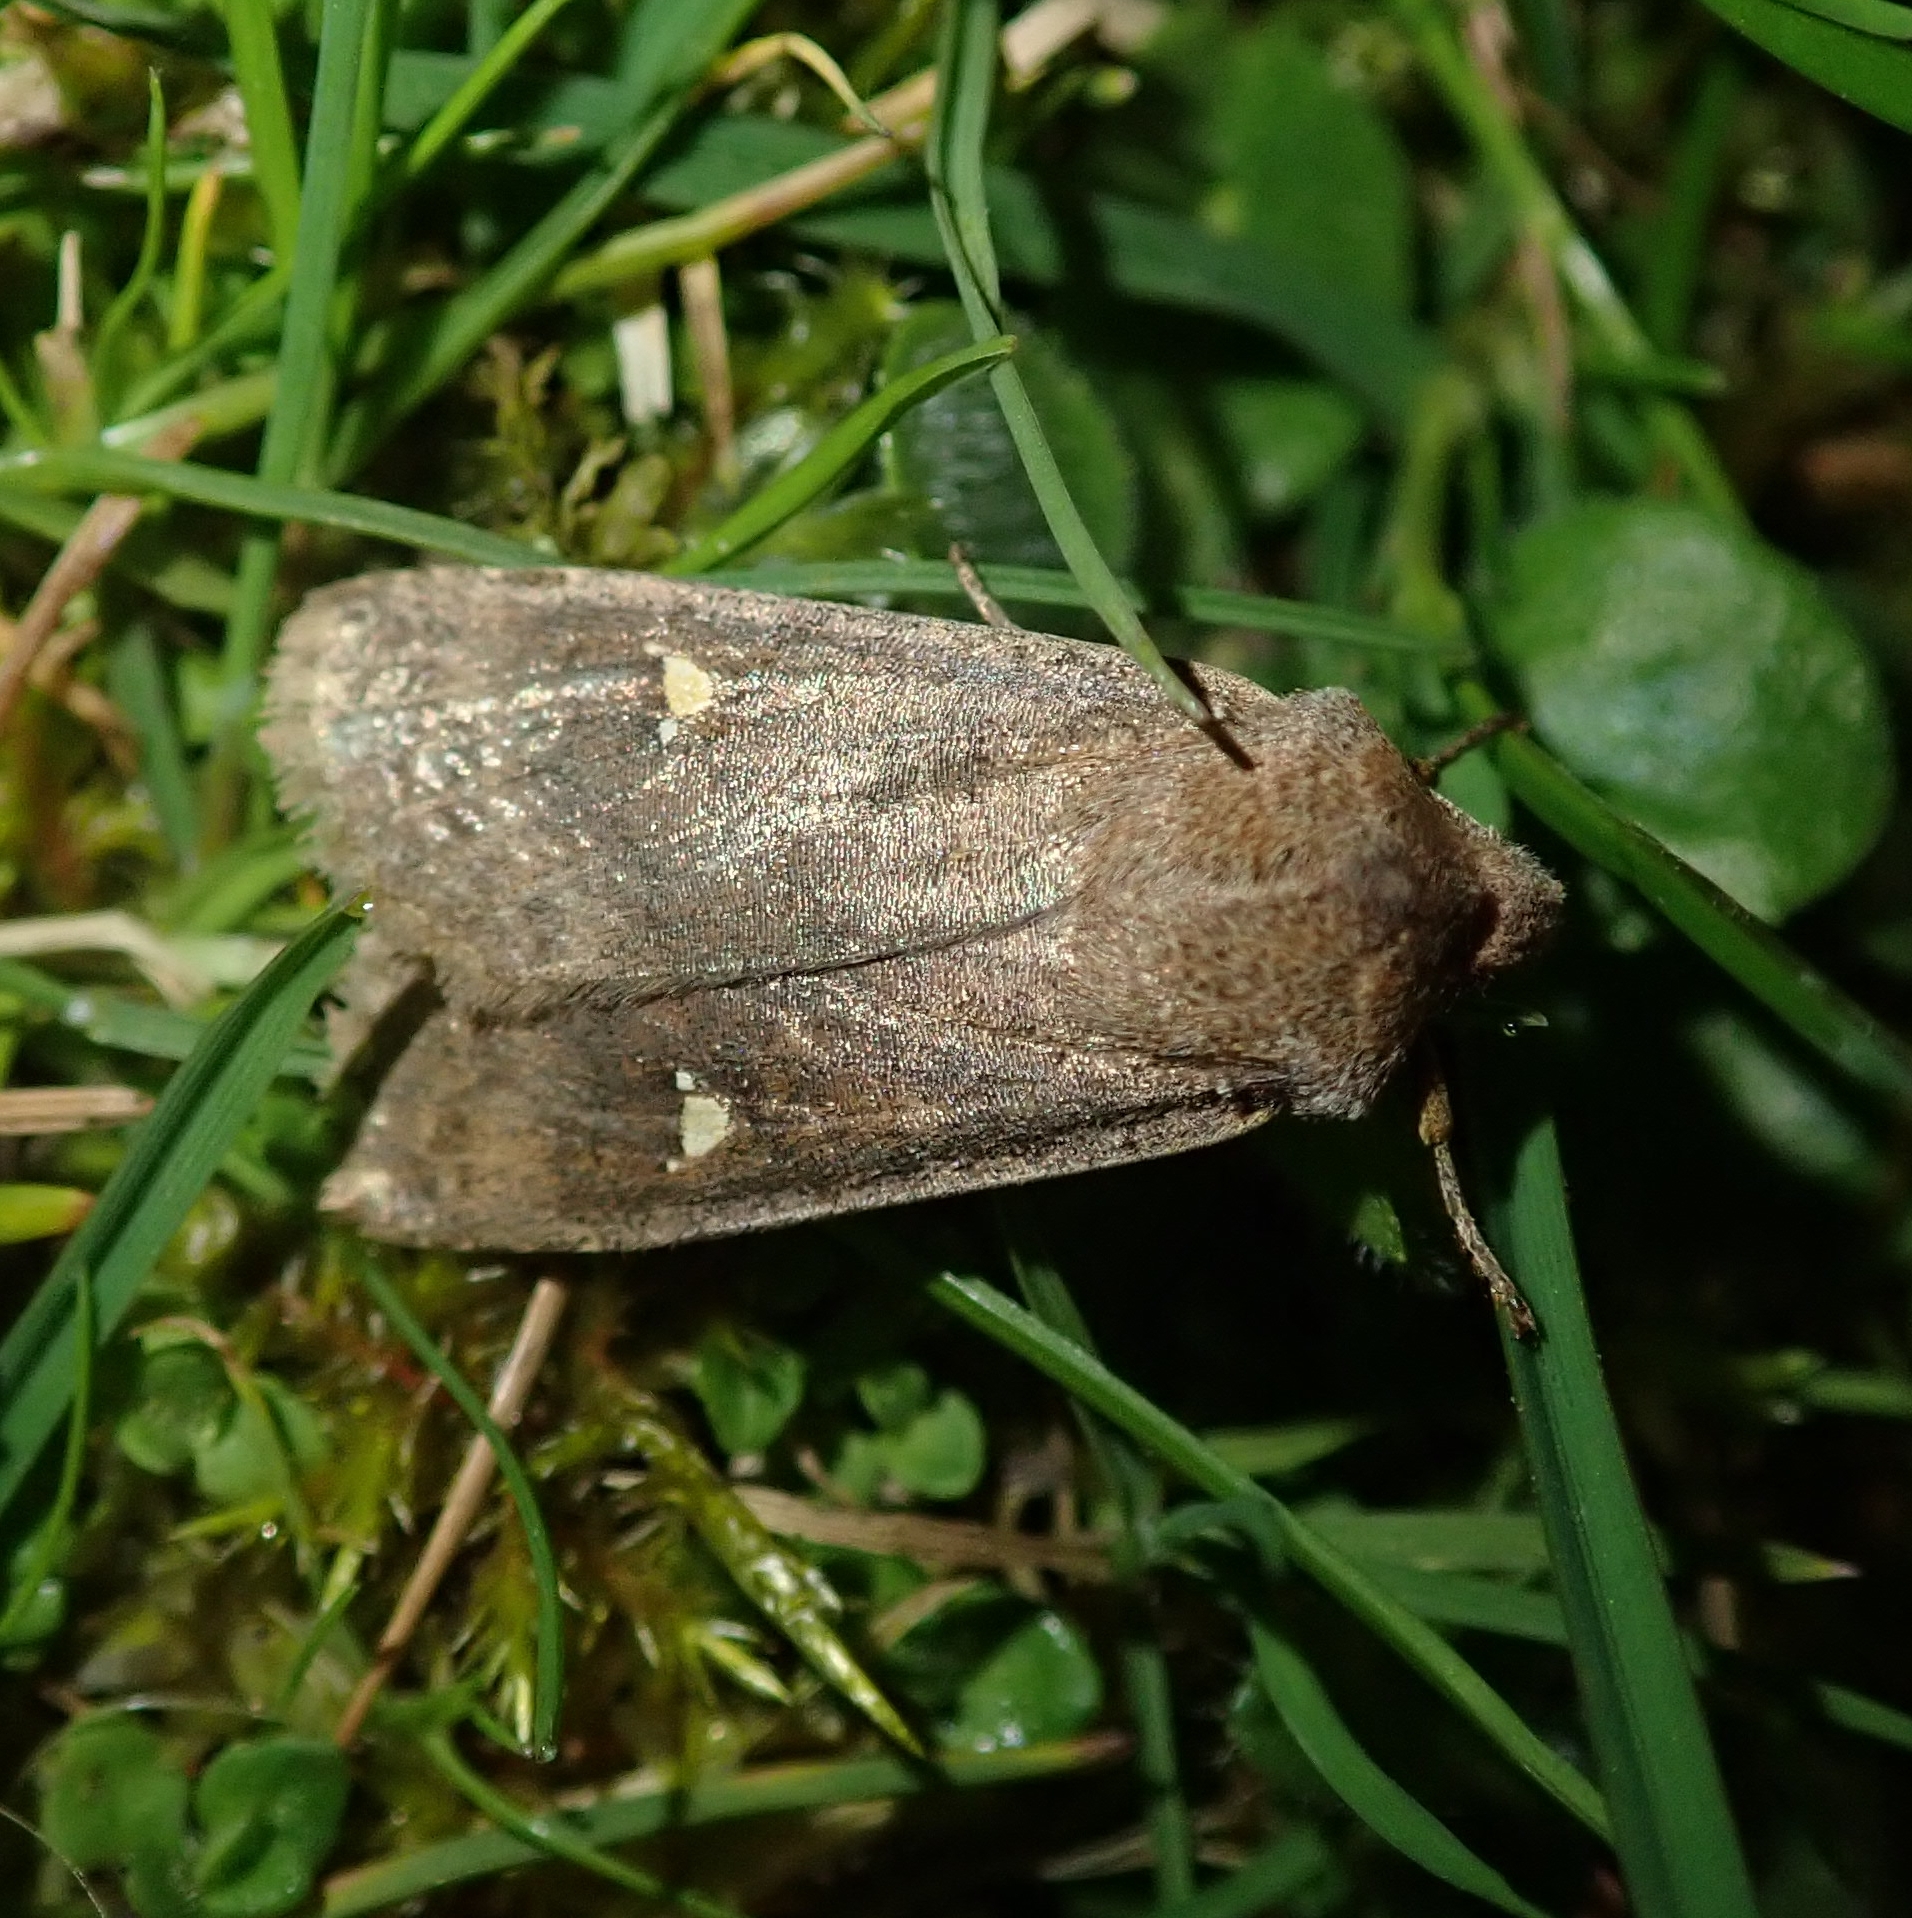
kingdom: Animalia
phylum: Arthropoda
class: Insecta
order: Lepidoptera
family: Noctuidae
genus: Eupsilia
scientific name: Eupsilia transversa
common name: Satellite
